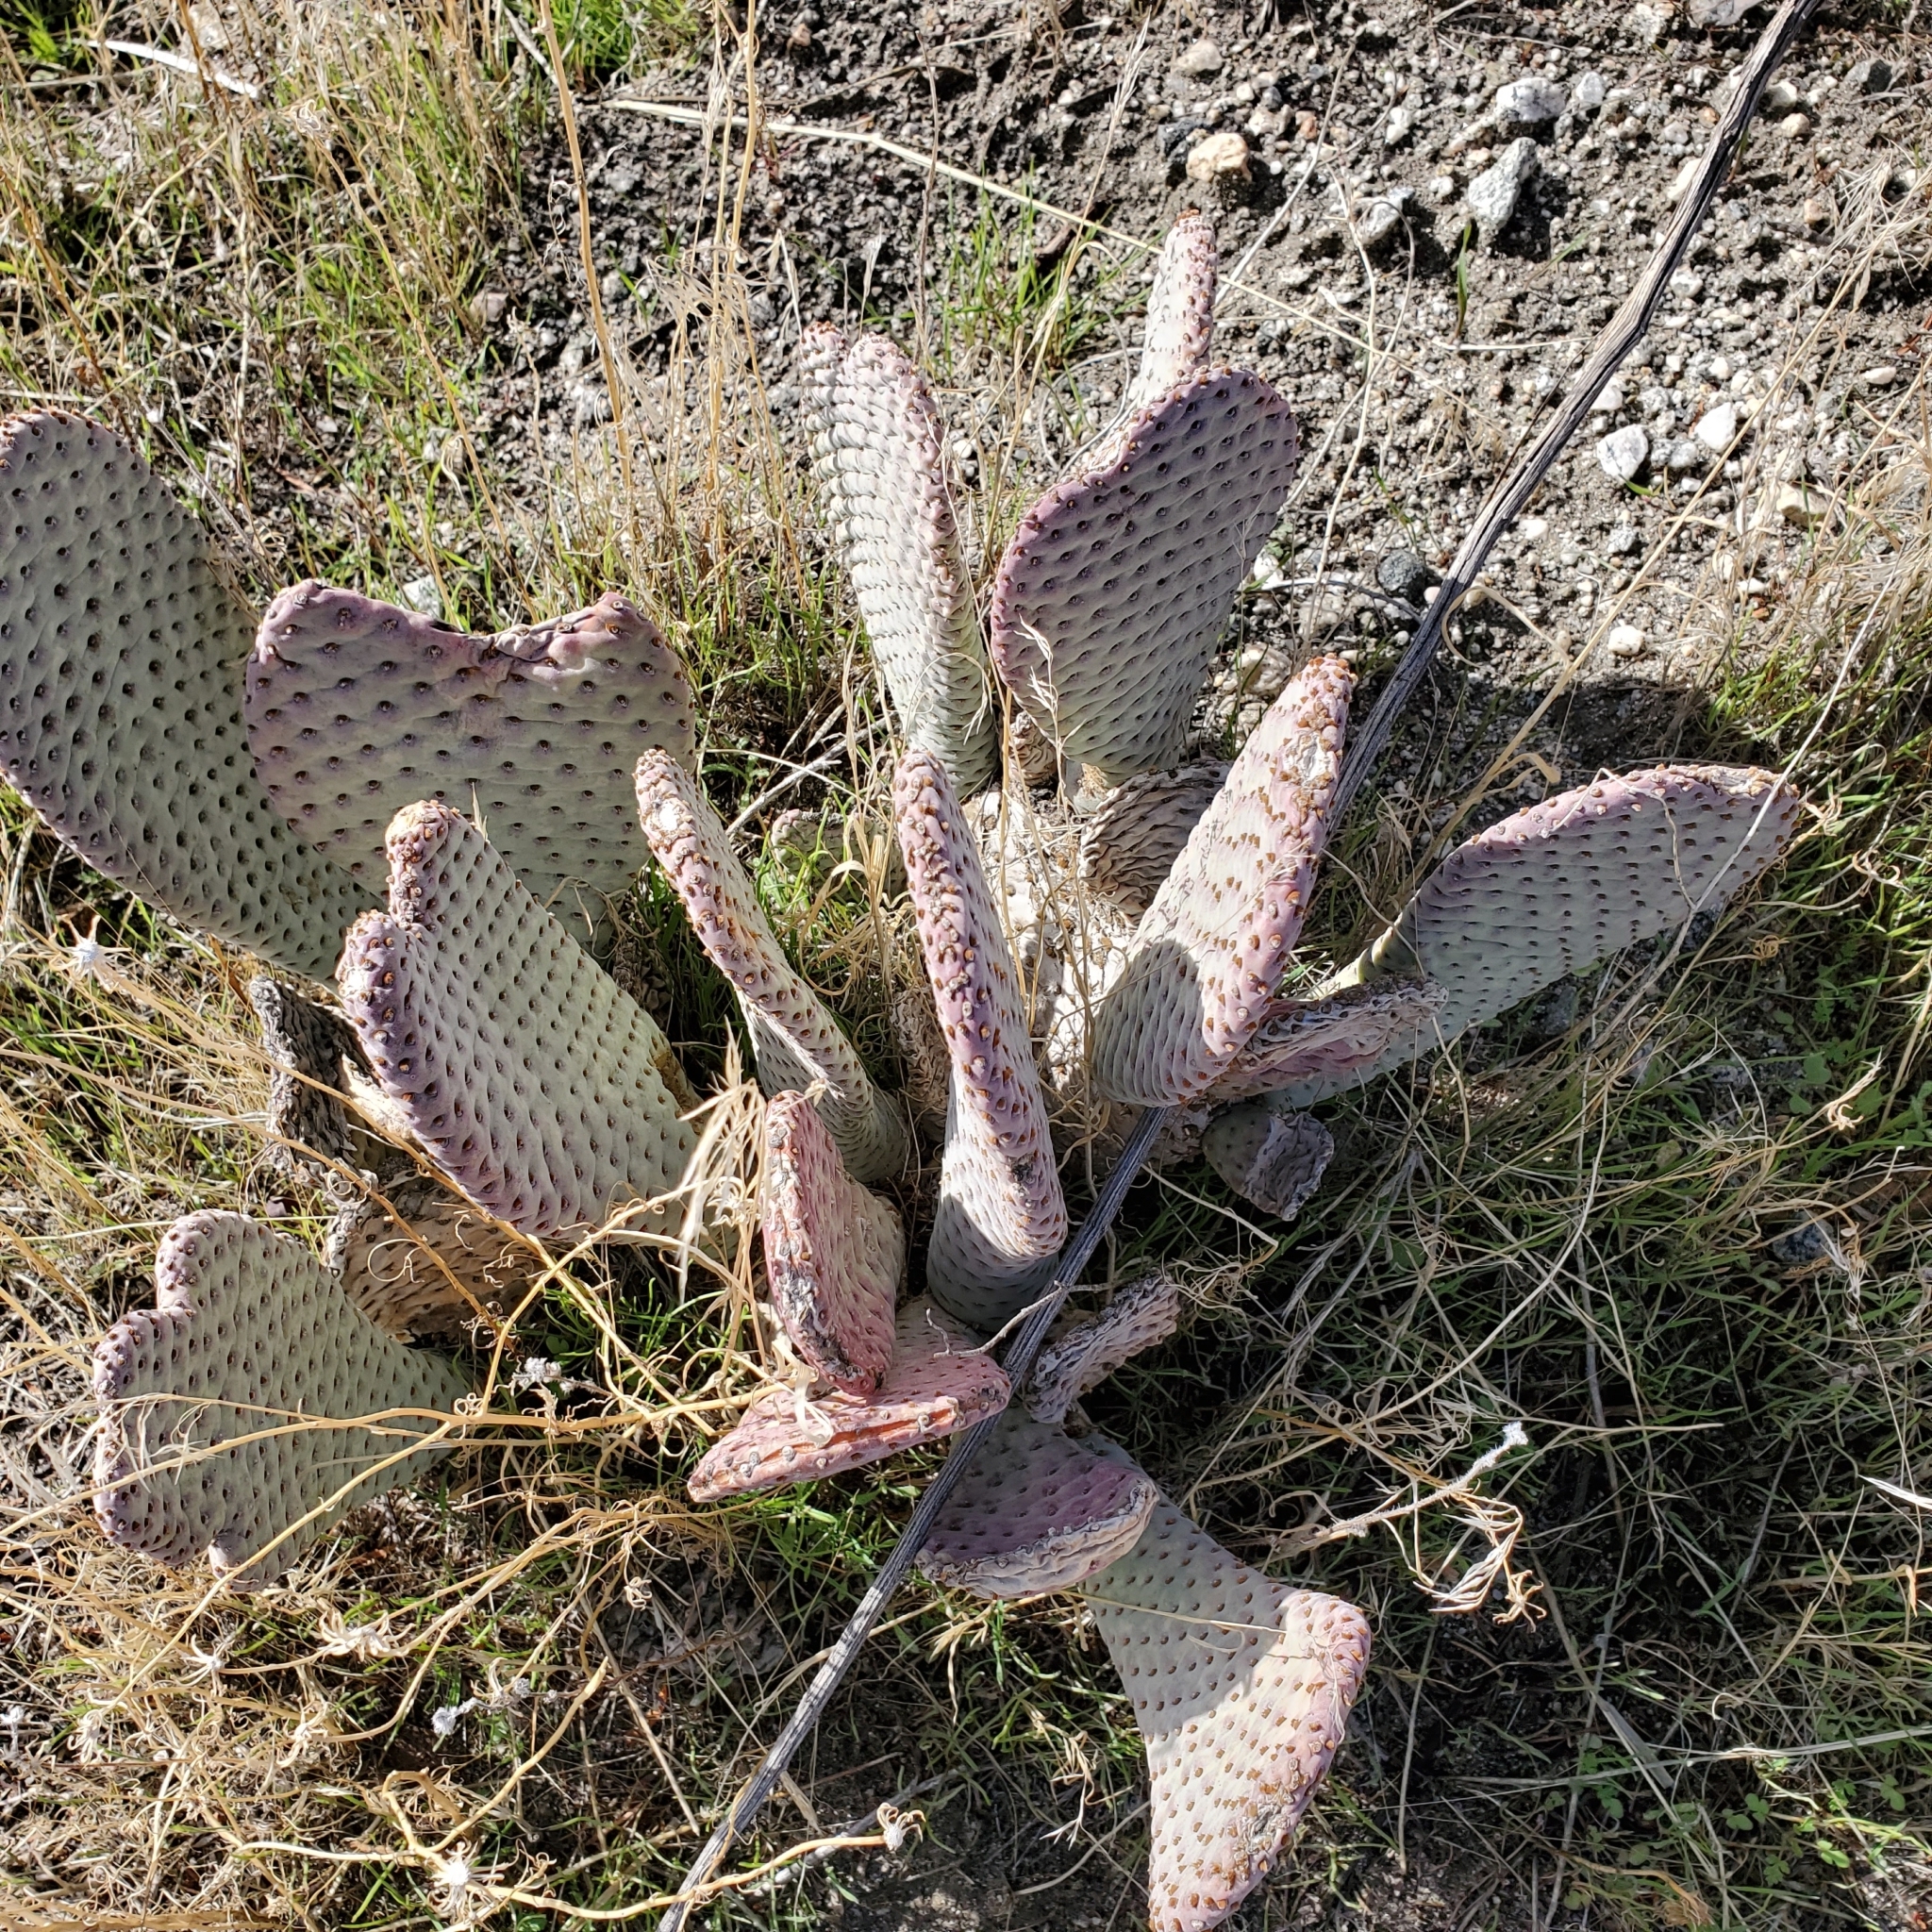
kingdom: Plantae
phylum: Tracheophyta
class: Magnoliopsida
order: Caryophyllales
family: Cactaceae
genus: Opuntia
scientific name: Opuntia basilaris
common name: Beavertail prickly-pear
